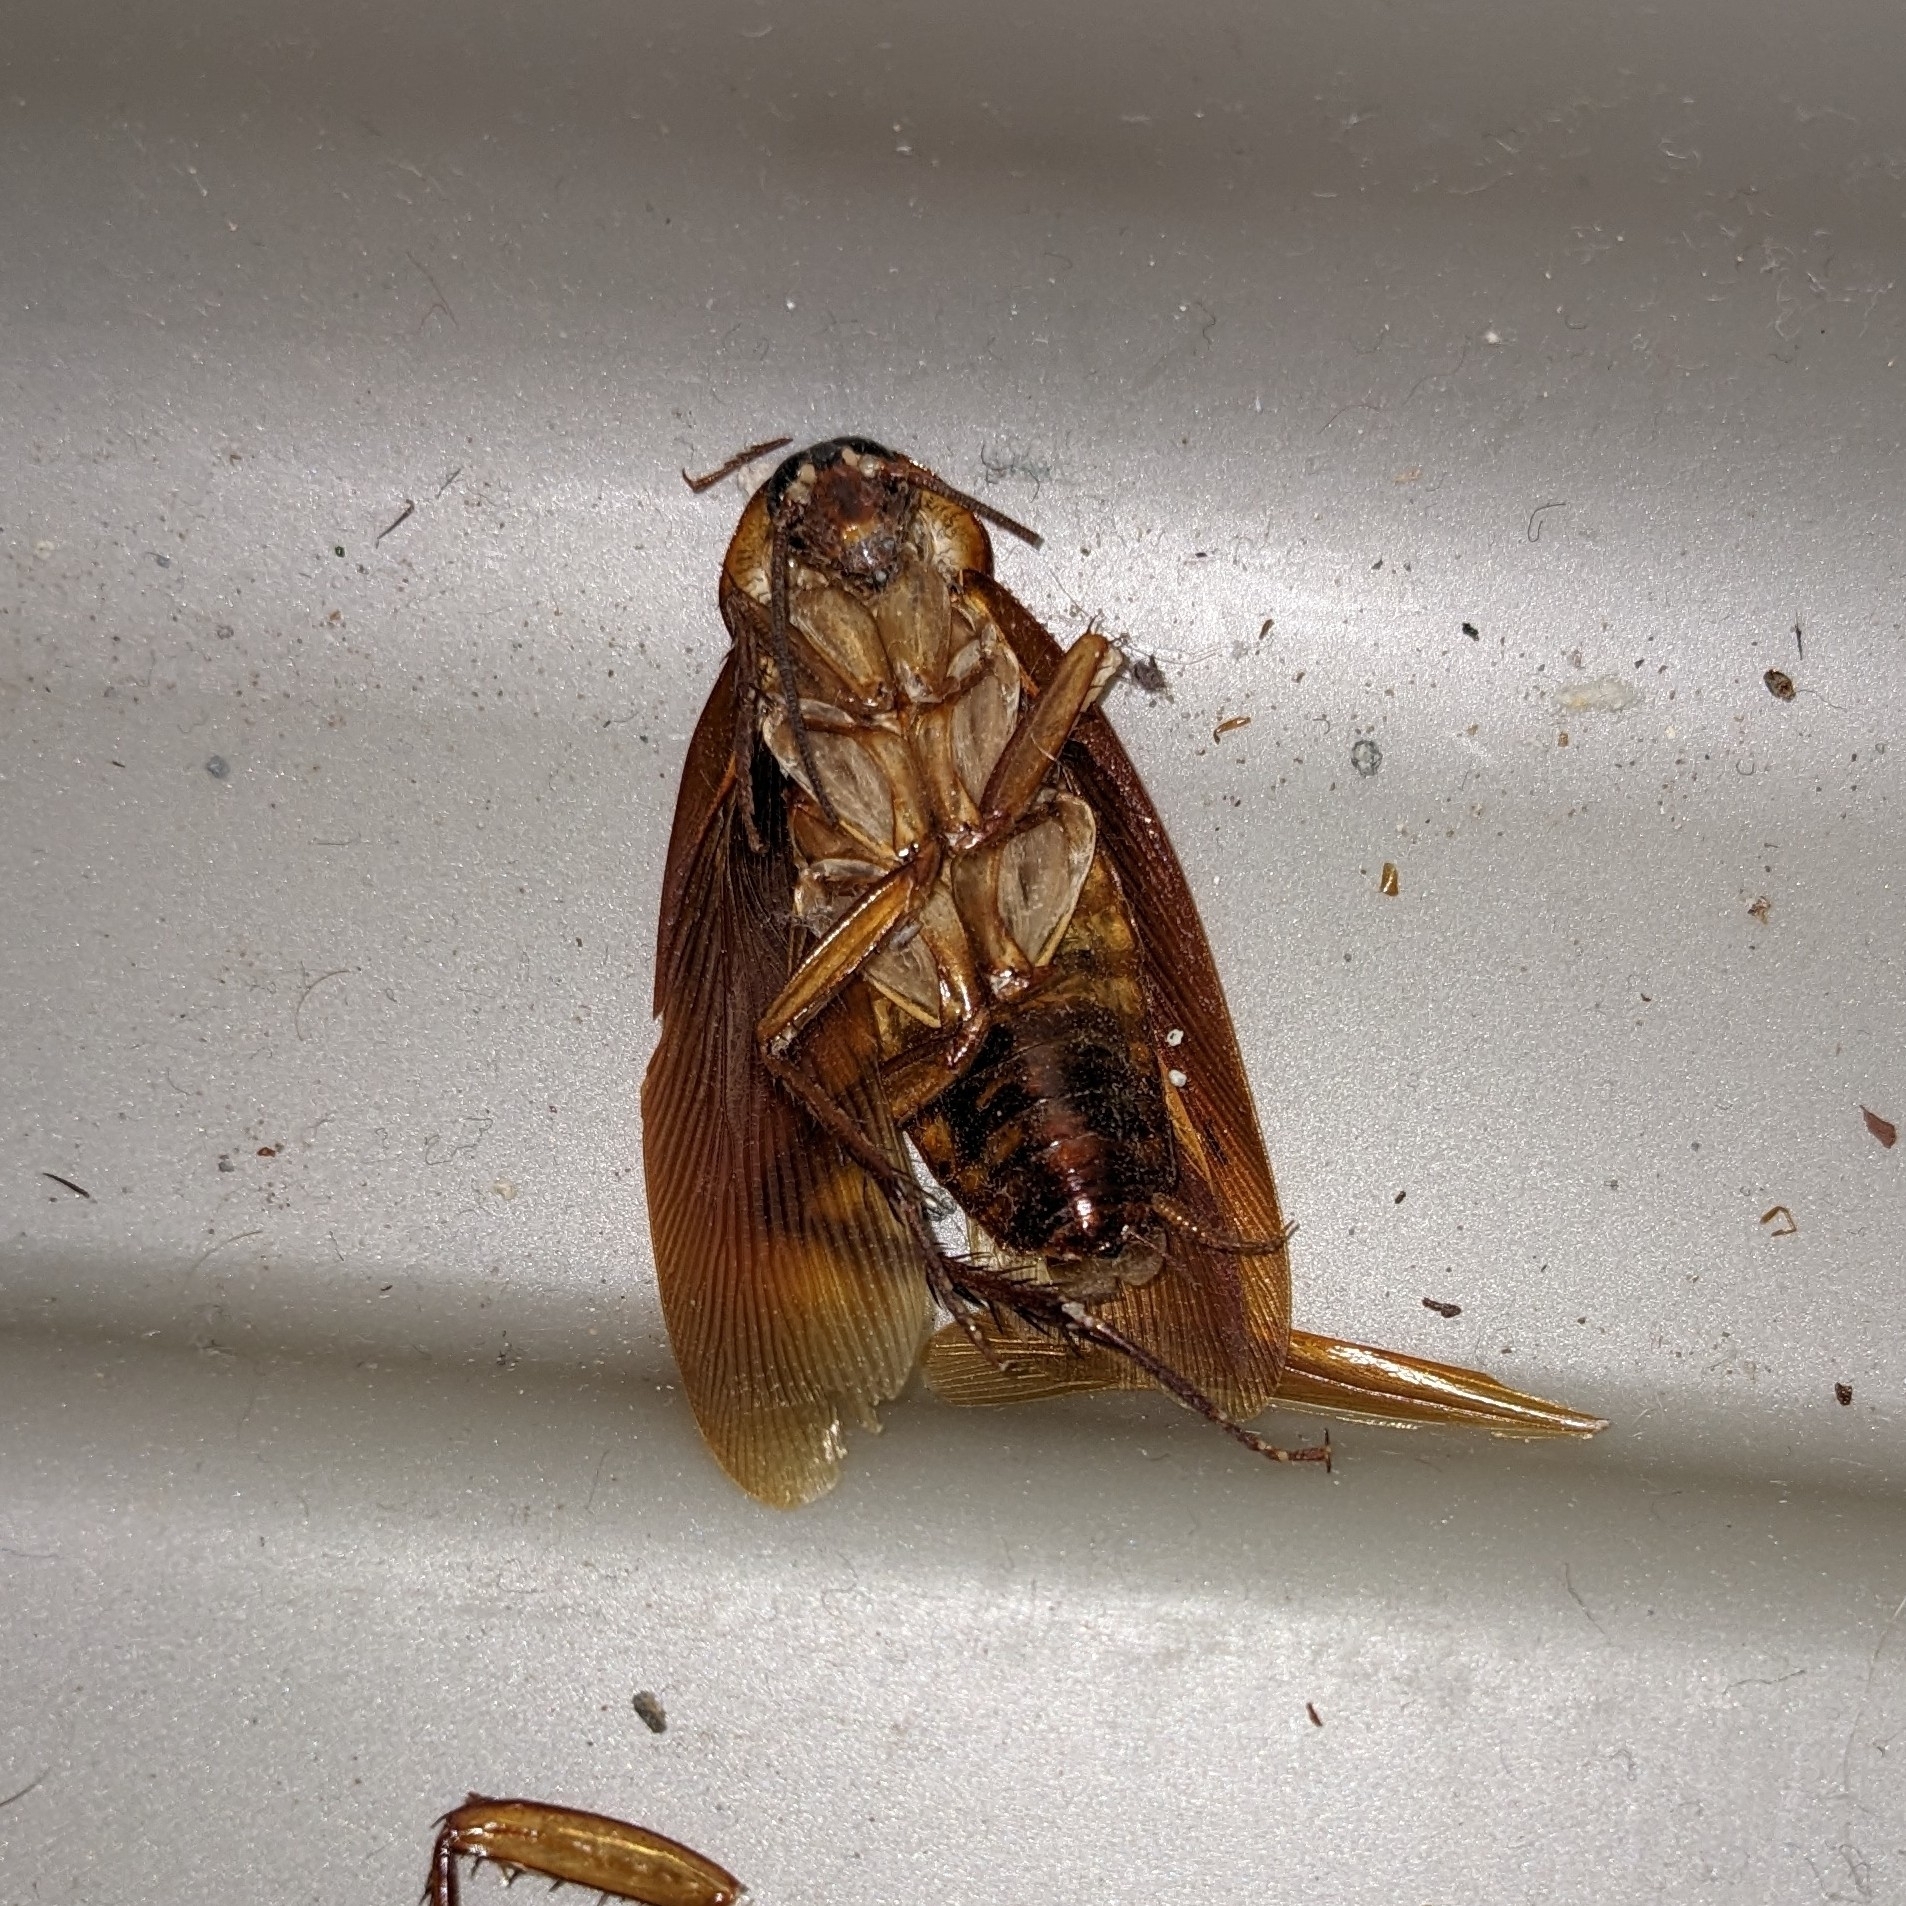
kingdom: Animalia
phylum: Arthropoda
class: Insecta
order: Blattodea
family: Blattidae
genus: Periplaneta
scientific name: Periplaneta americana
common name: American cockroach
